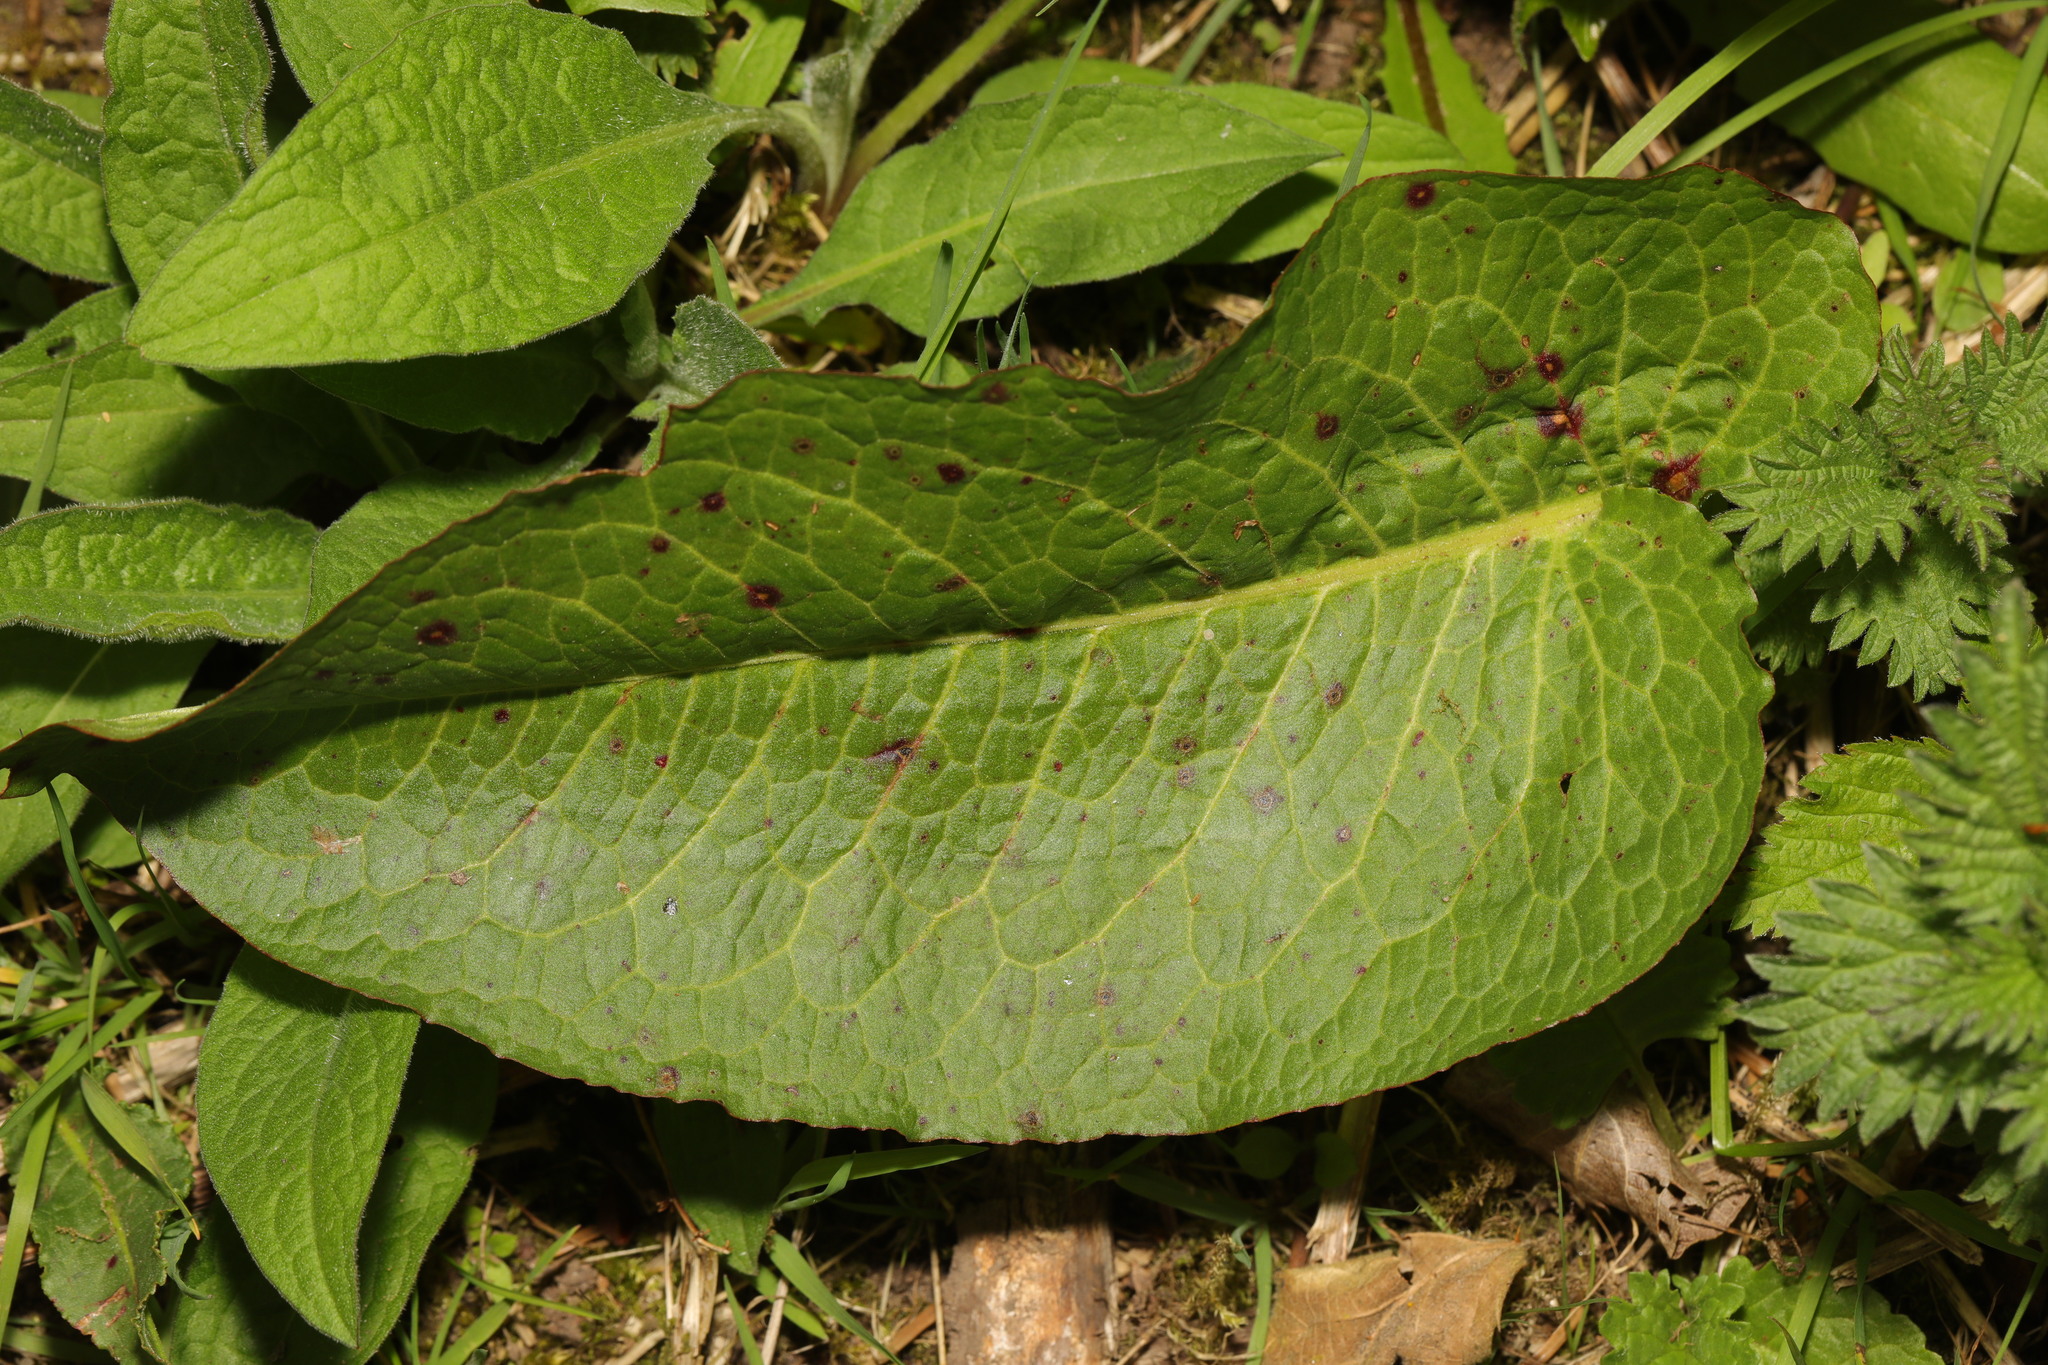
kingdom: Plantae
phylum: Tracheophyta
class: Magnoliopsida
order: Caryophyllales
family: Polygonaceae
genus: Rumex
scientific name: Rumex obtusifolius
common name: Bitter dock
